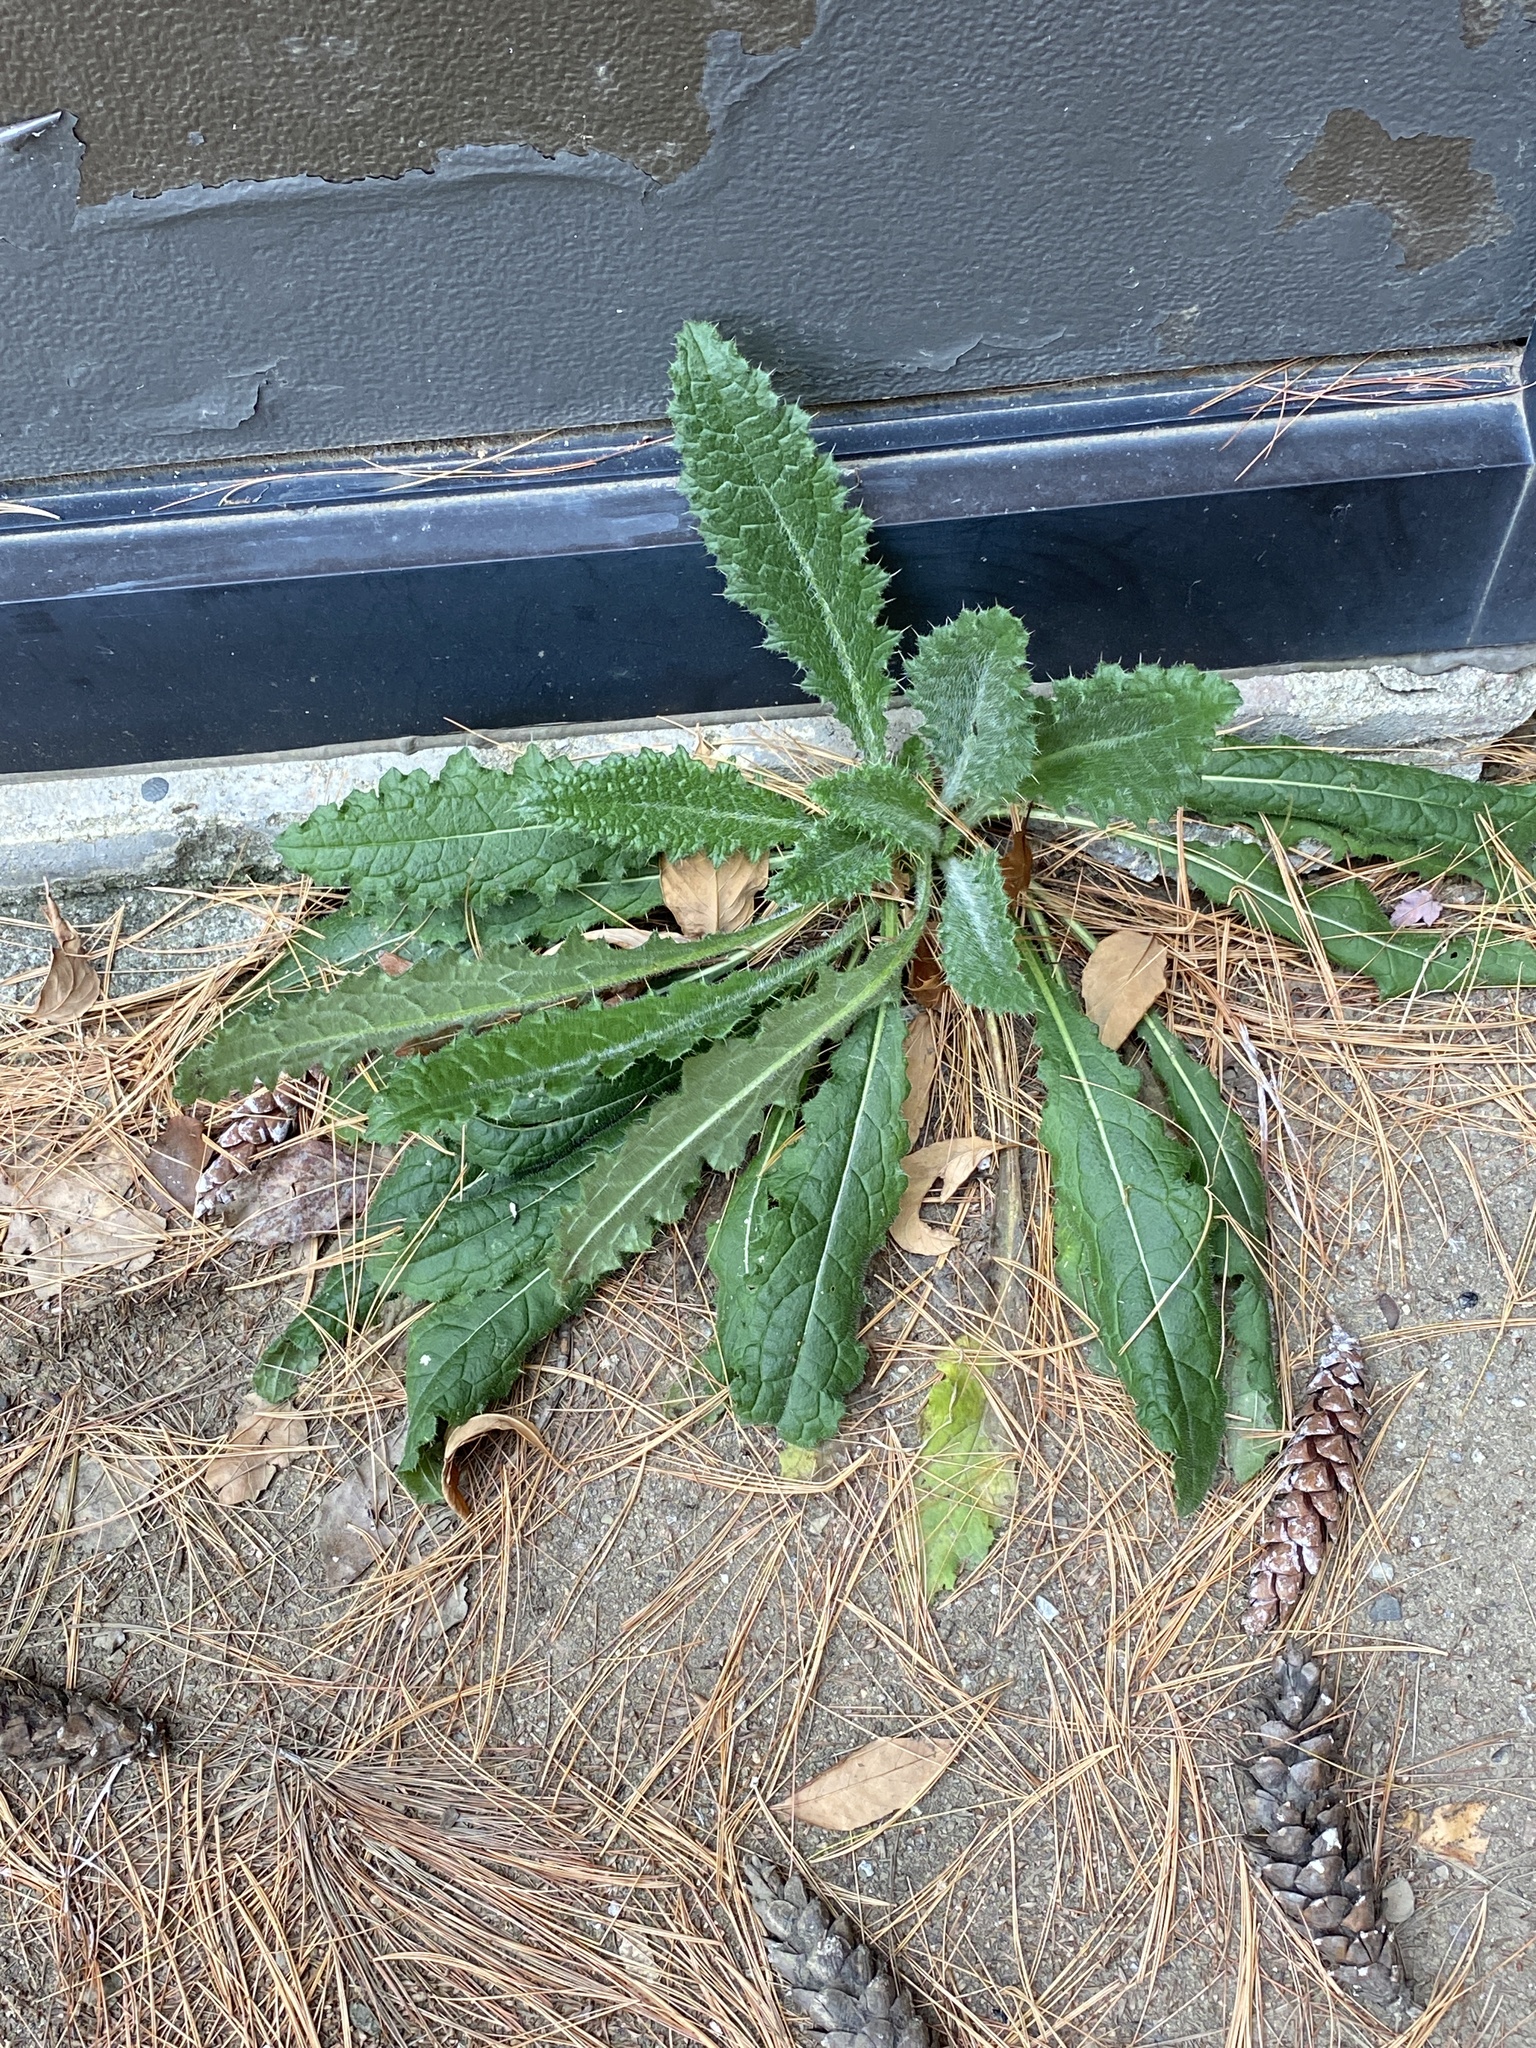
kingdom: Plantae
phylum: Tracheophyta
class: Magnoliopsida
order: Asterales
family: Asteraceae
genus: Cirsium
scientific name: Cirsium vulgare
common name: Bull thistle
